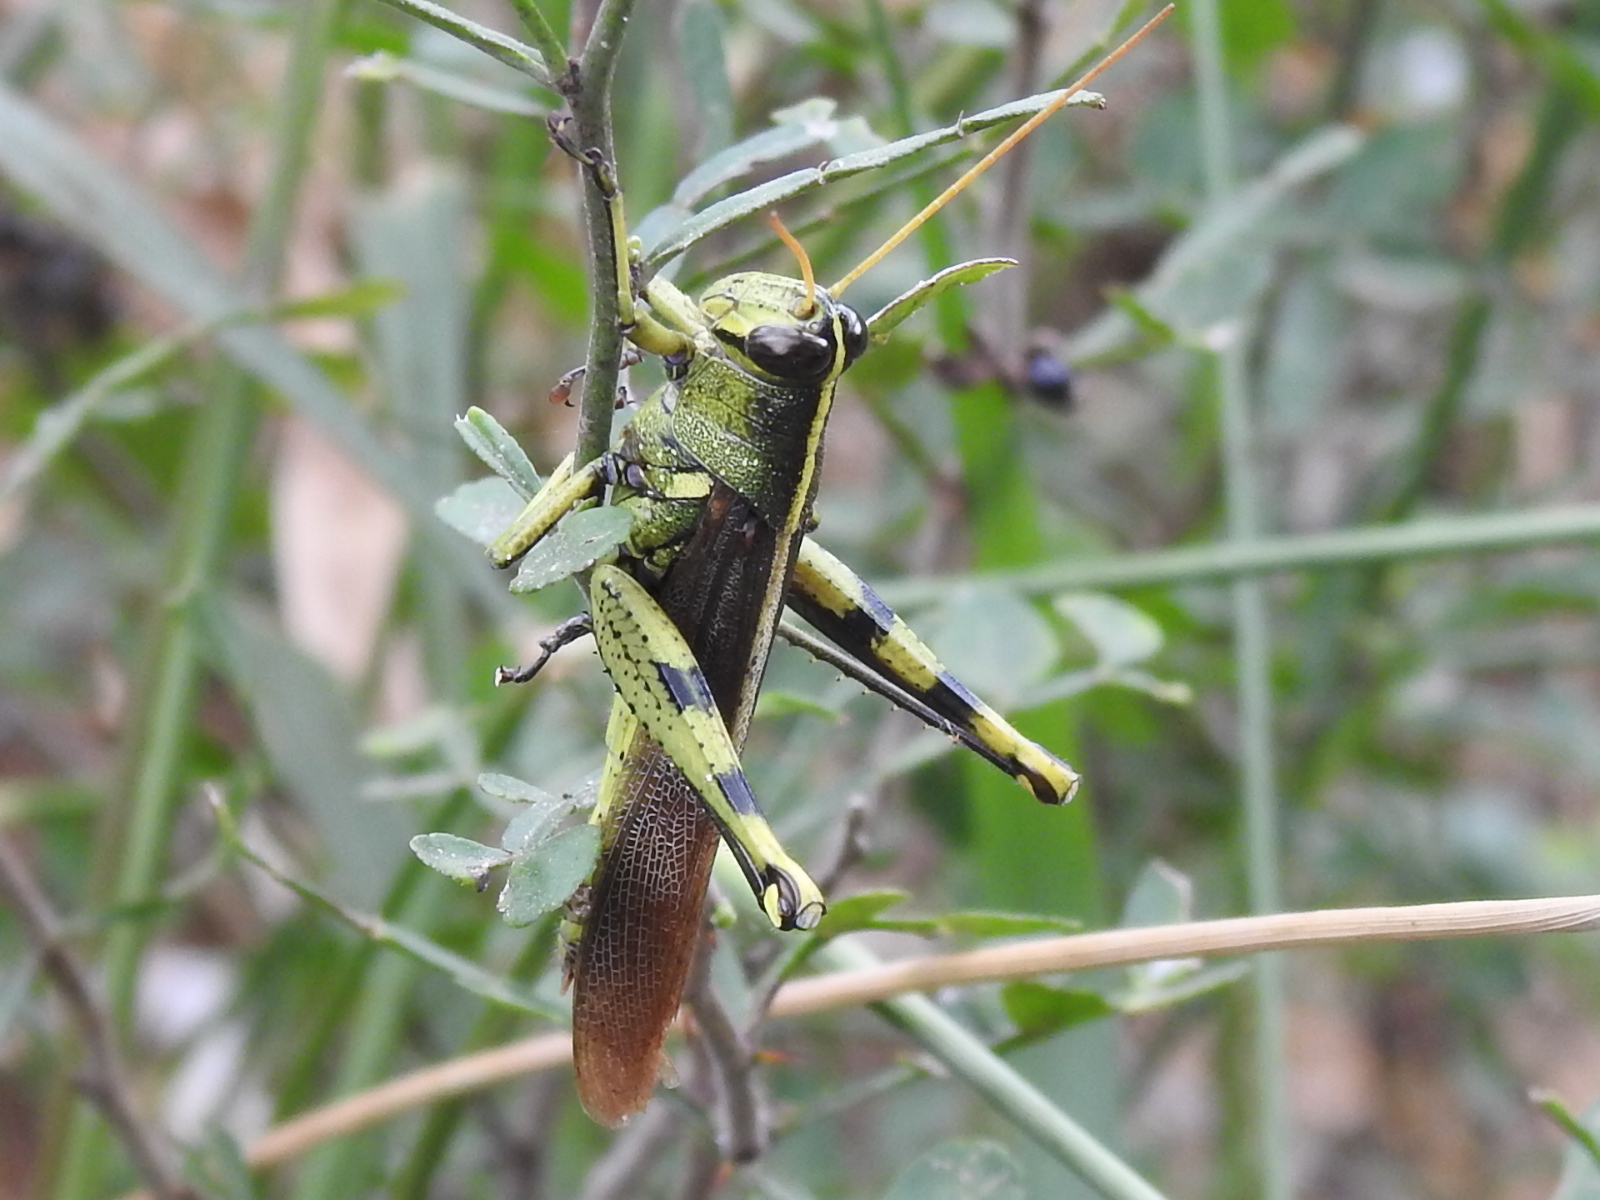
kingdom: Animalia
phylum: Arthropoda
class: Insecta
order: Orthoptera
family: Acrididae
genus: Schistocerca
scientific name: Schistocerca obscura
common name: Obscure bird grasshopper
